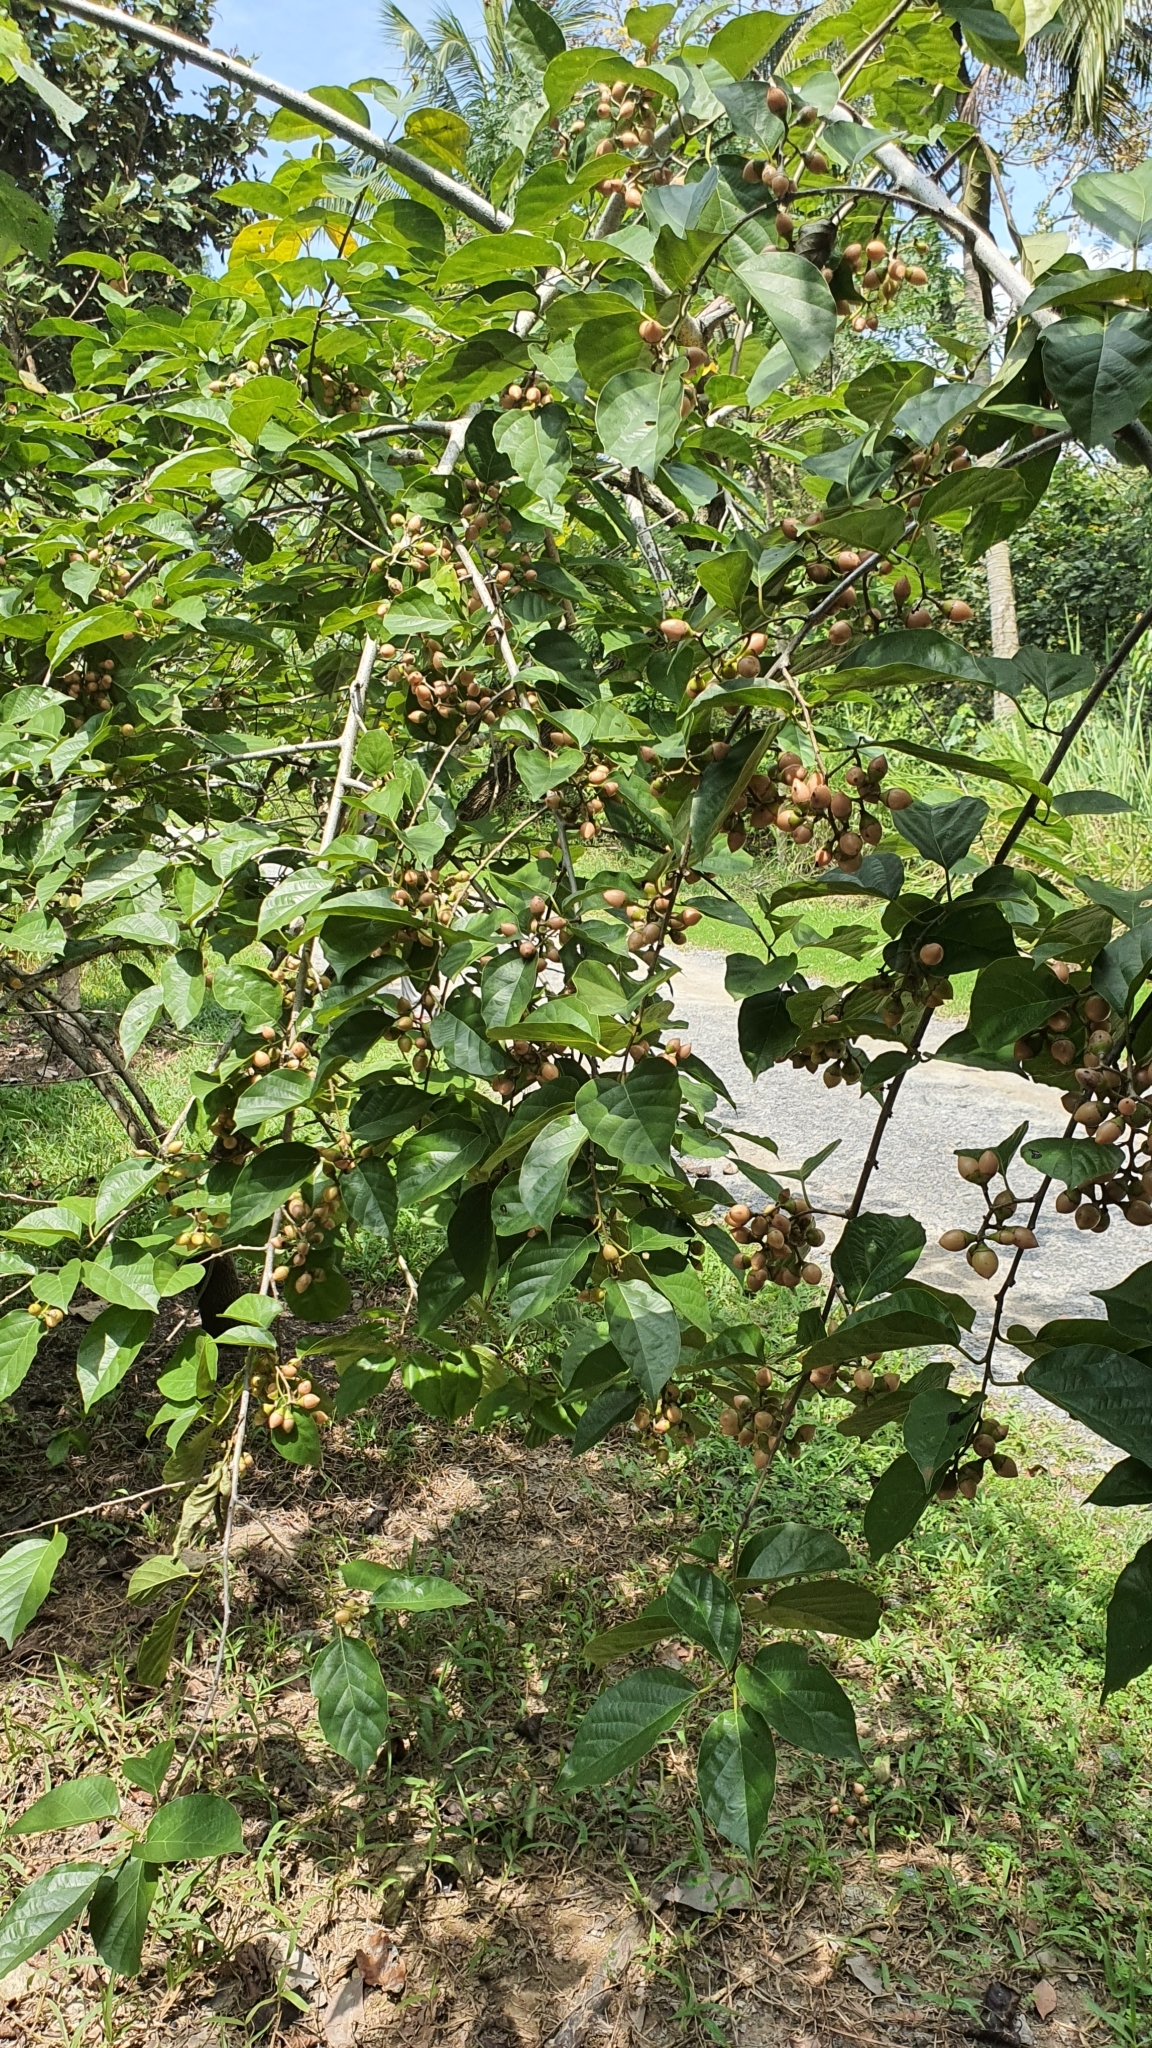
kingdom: Plantae
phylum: Tracheophyta
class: Magnoliopsida
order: Boraginales
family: Cordiaceae
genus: Cordia
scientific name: Cordia dichotoma
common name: Fragrant manjack
